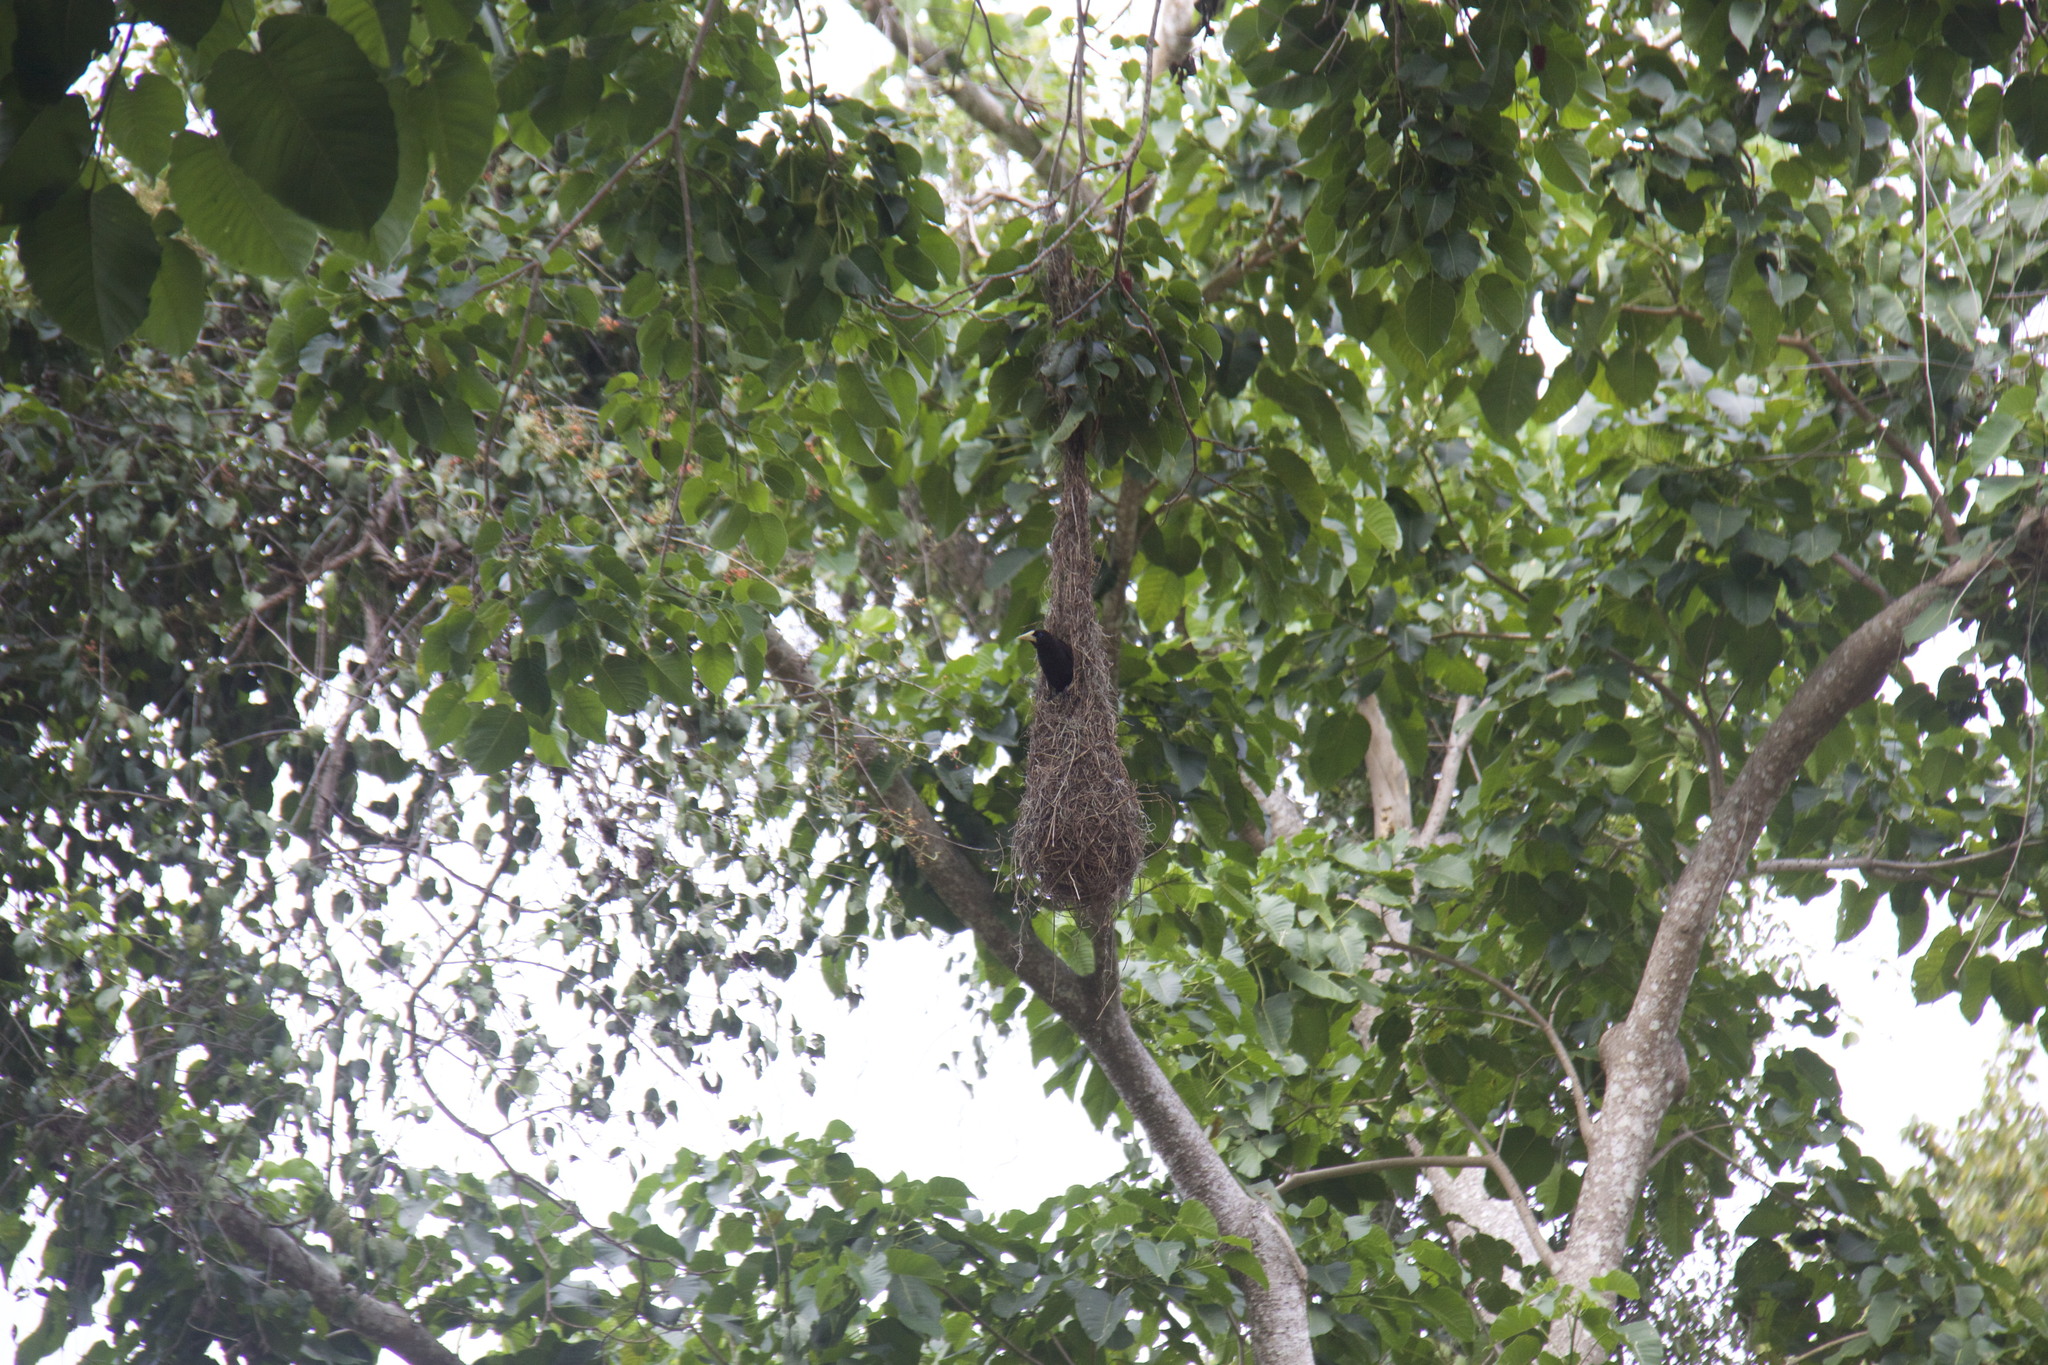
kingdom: Animalia
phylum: Chordata
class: Aves
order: Passeriformes
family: Icteridae
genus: Psarocolius
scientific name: Psarocolius decumanus
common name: Crested oropendola
